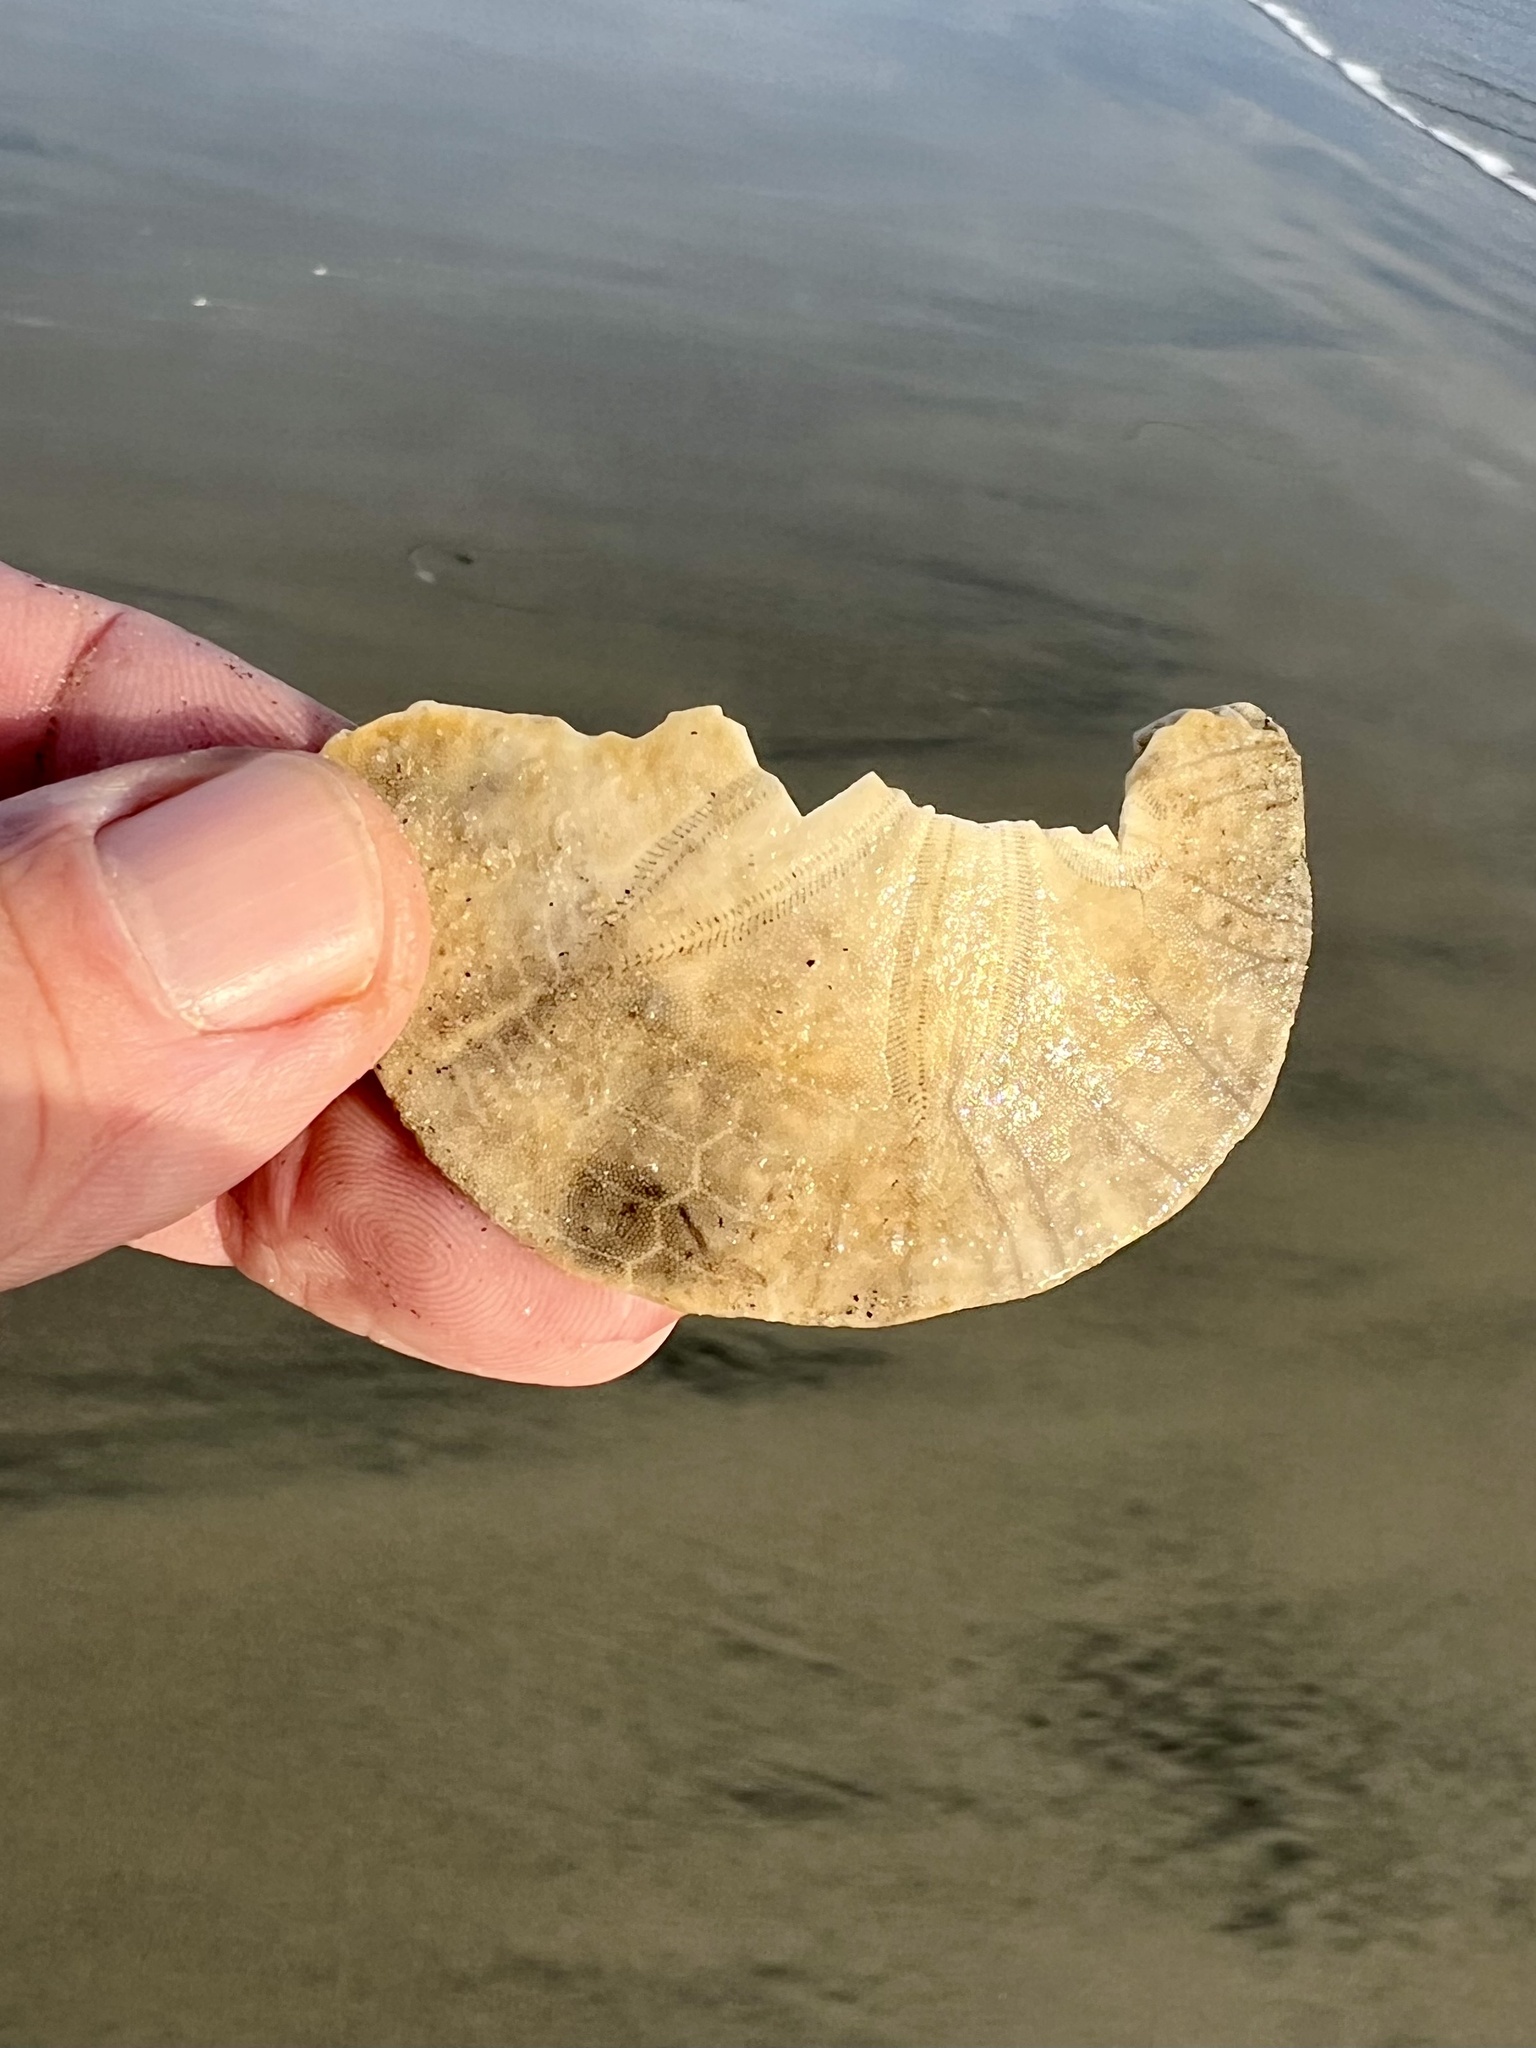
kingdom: Animalia
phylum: Echinodermata
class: Echinoidea
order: Echinolampadacea
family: Dendrasteridae
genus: Dendraster
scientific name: Dendraster excentricus
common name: Eccentric sand dollar sea urchin
